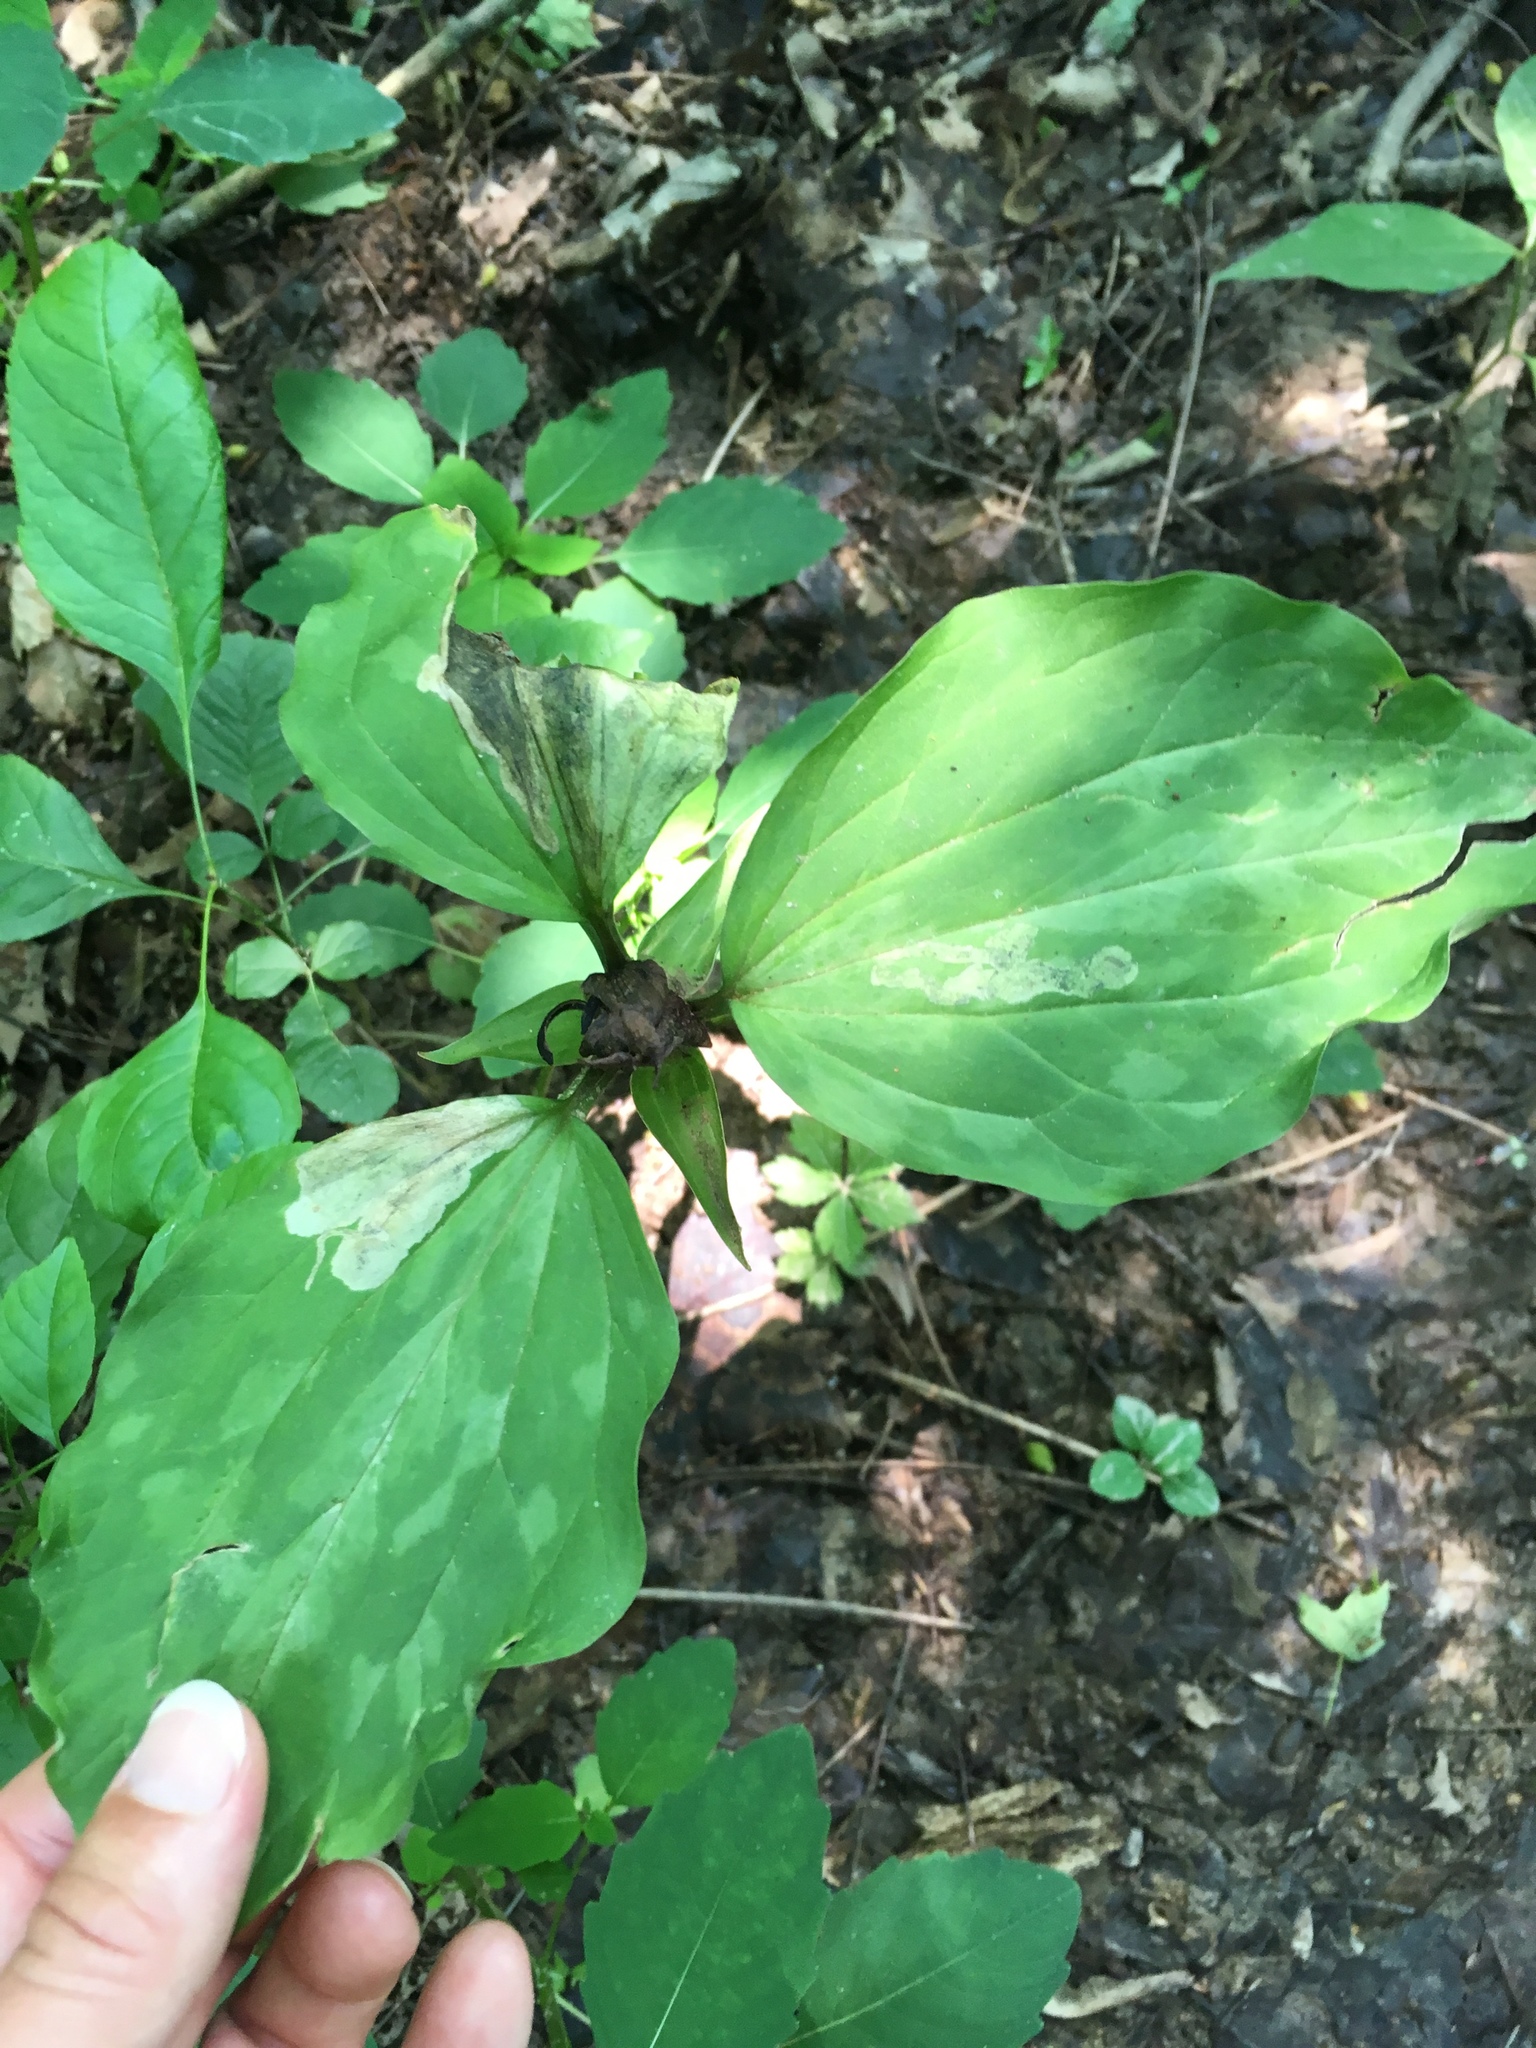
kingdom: Plantae
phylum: Tracheophyta
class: Liliopsida
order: Liliales
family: Melanthiaceae
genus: Trillium
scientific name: Trillium recurvatum
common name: Bloody butcher
